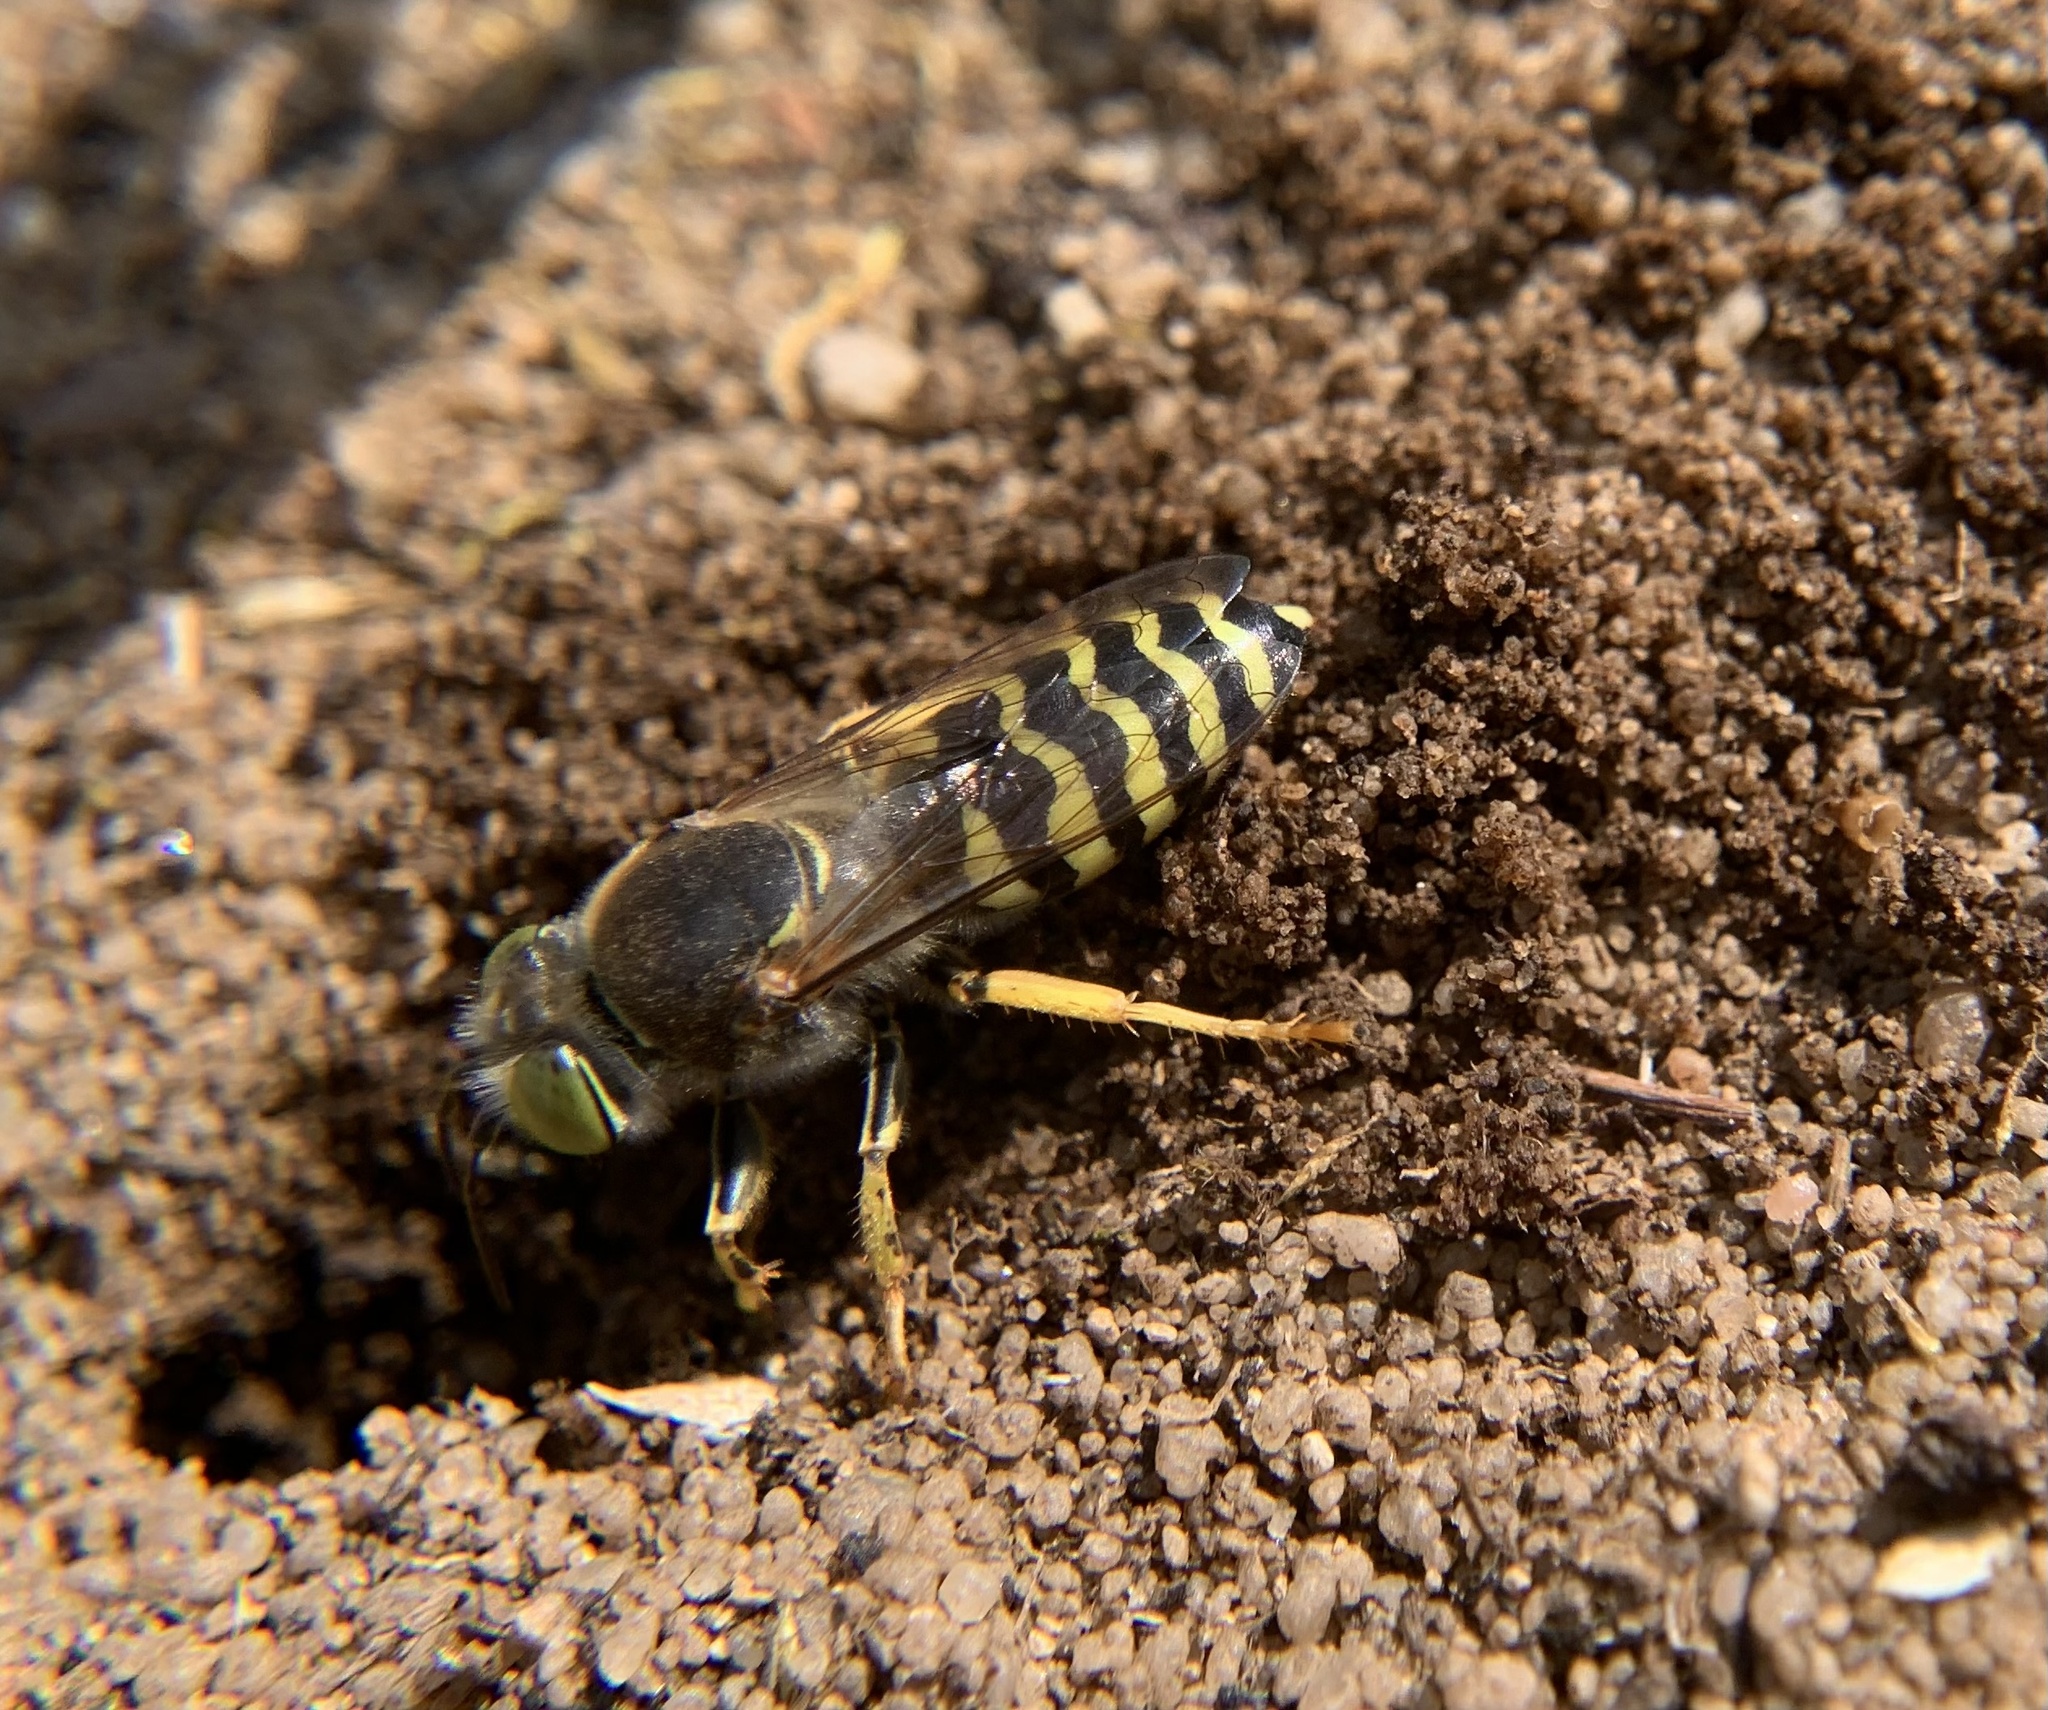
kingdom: Animalia
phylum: Arthropoda
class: Insecta
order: Hymenoptera
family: Crabronidae
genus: Bembix
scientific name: Bembix rostrata
